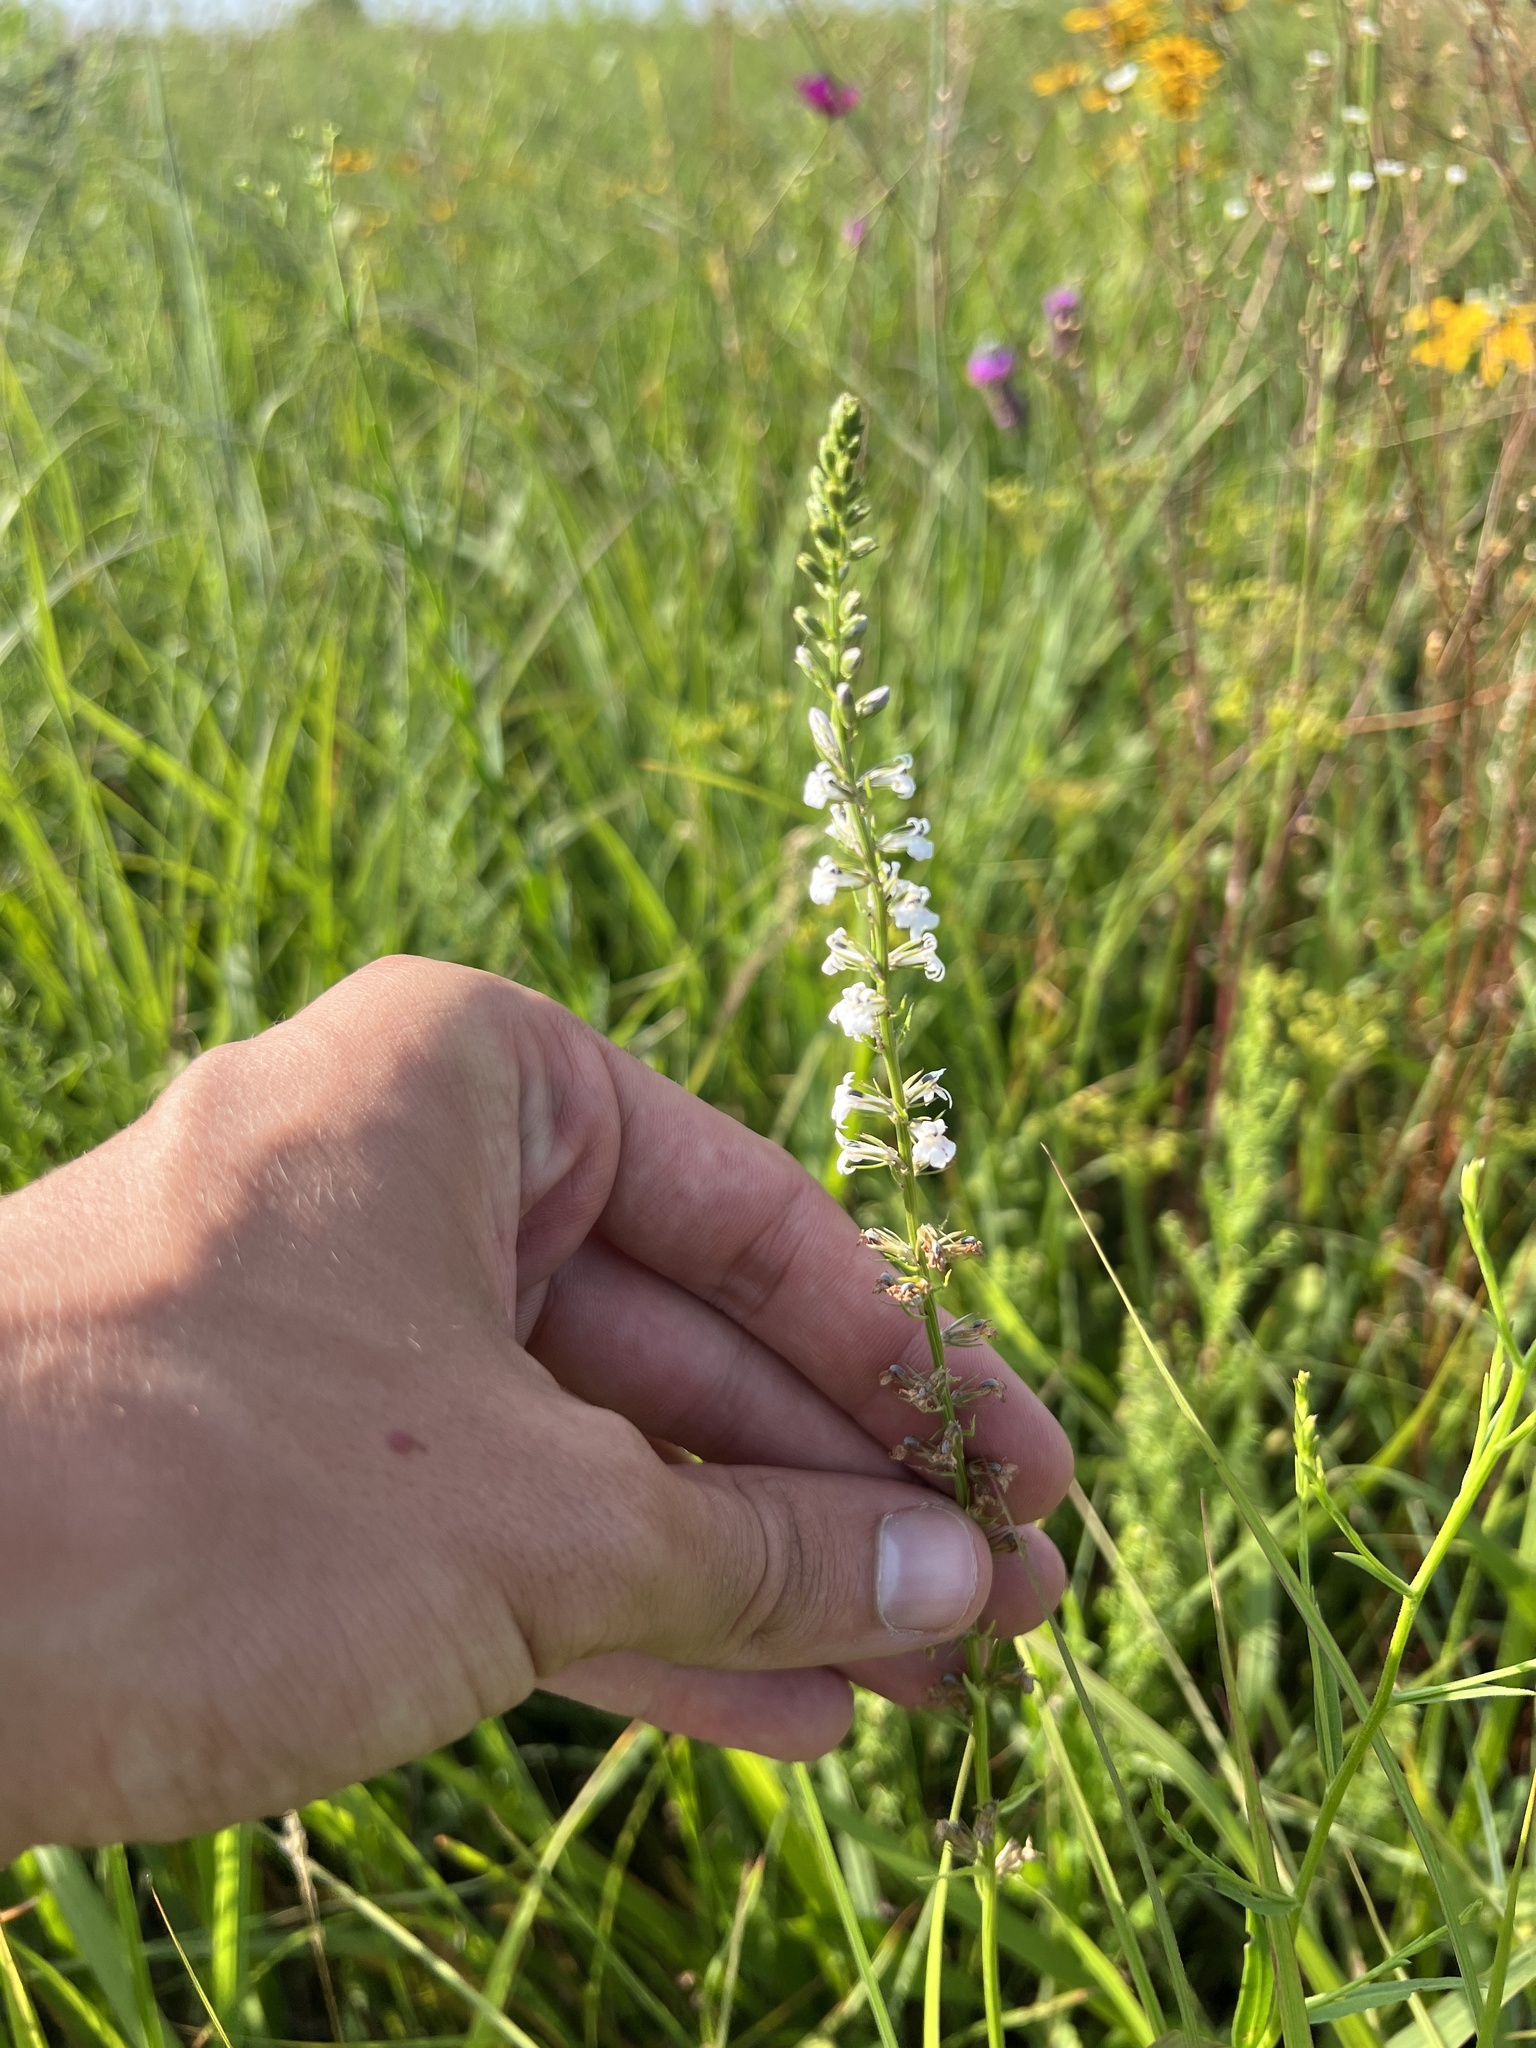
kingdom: Plantae
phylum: Tracheophyta
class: Magnoliopsida
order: Asterales
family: Campanulaceae
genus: Lobelia
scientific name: Lobelia spicata
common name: Pale-spike lobelia
